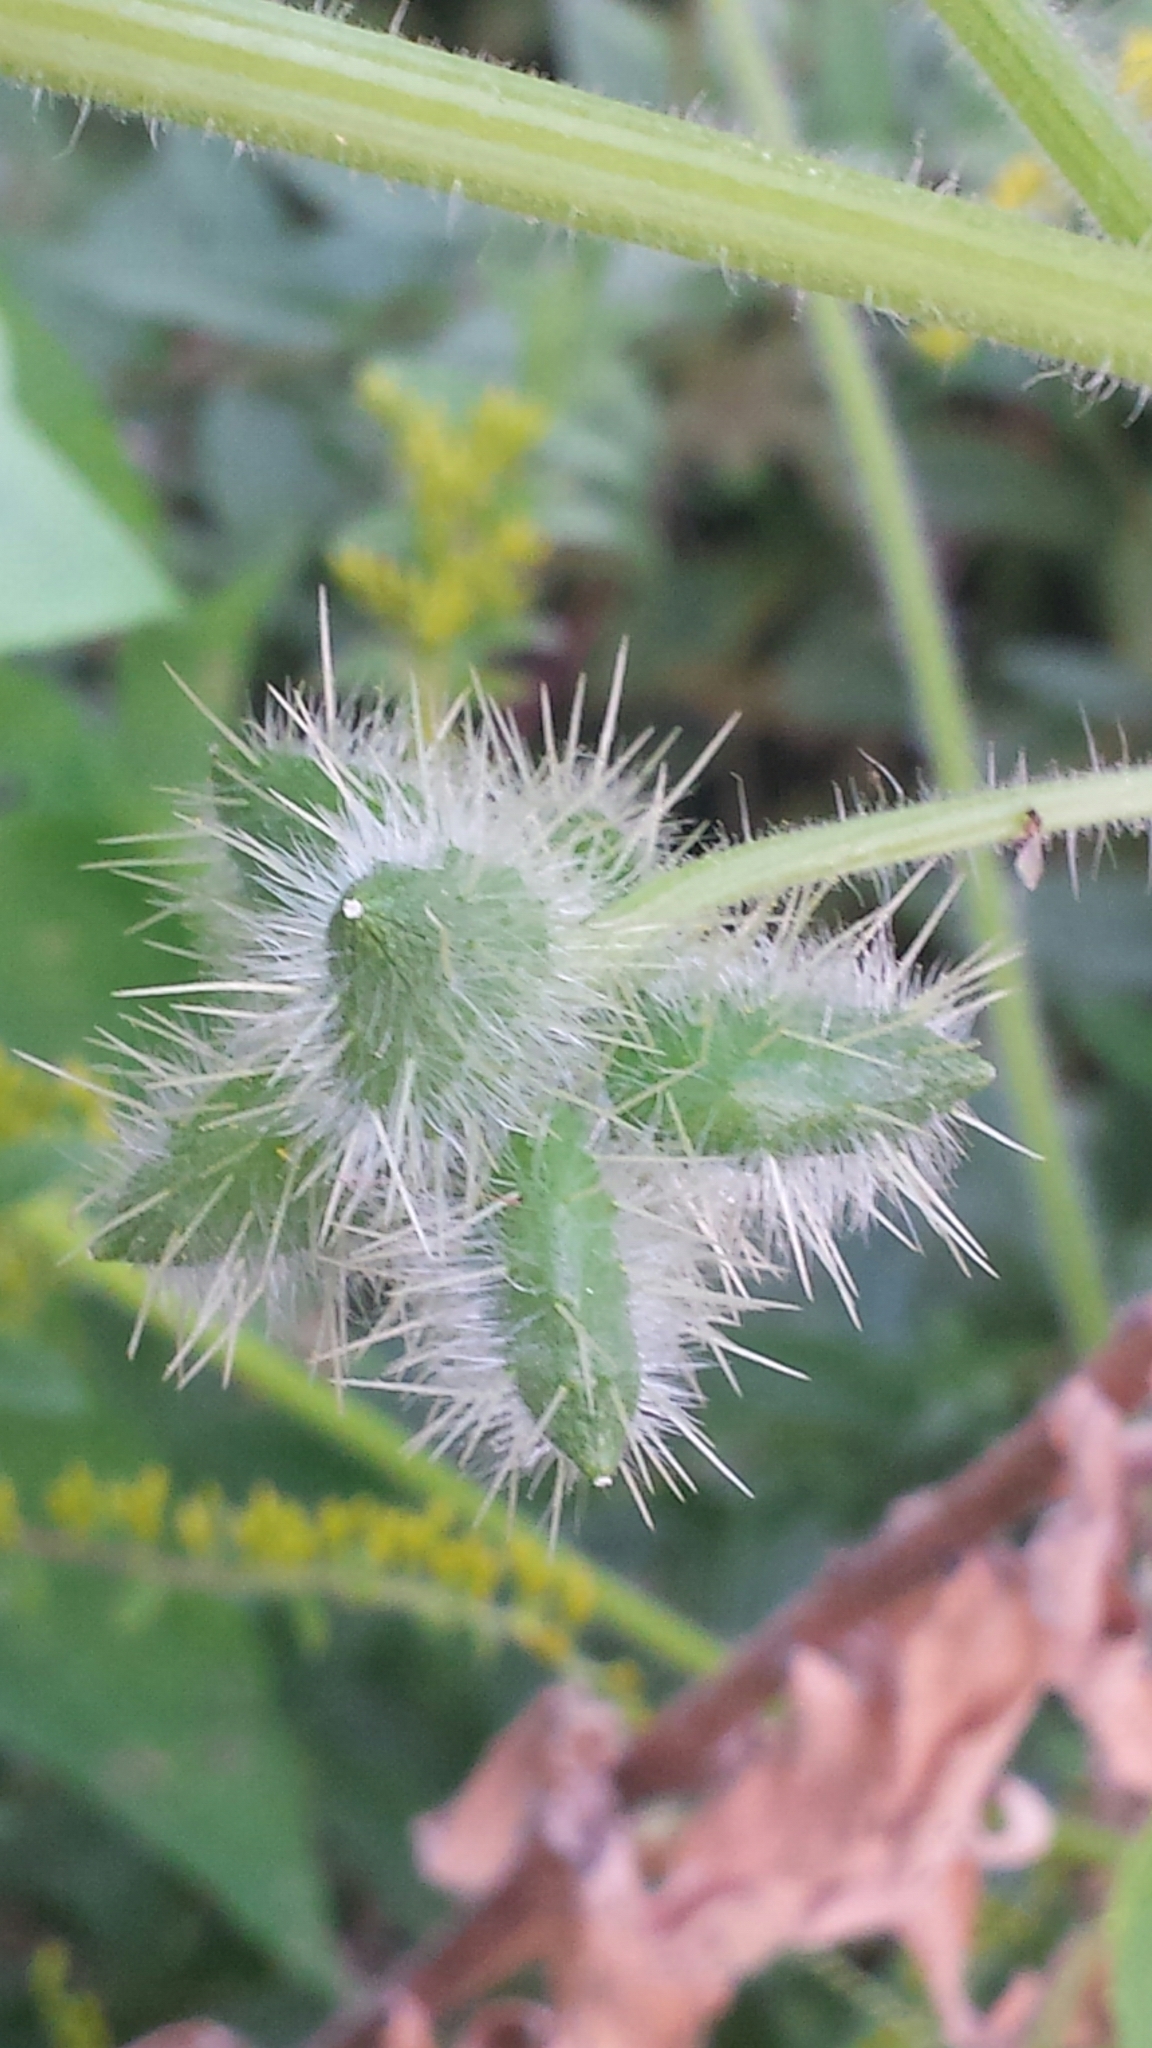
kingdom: Plantae
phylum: Tracheophyta
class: Magnoliopsida
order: Cucurbitales
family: Cucurbitaceae
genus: Sicyos
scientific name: Sicyos angulatus
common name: Angled burr cucumber
